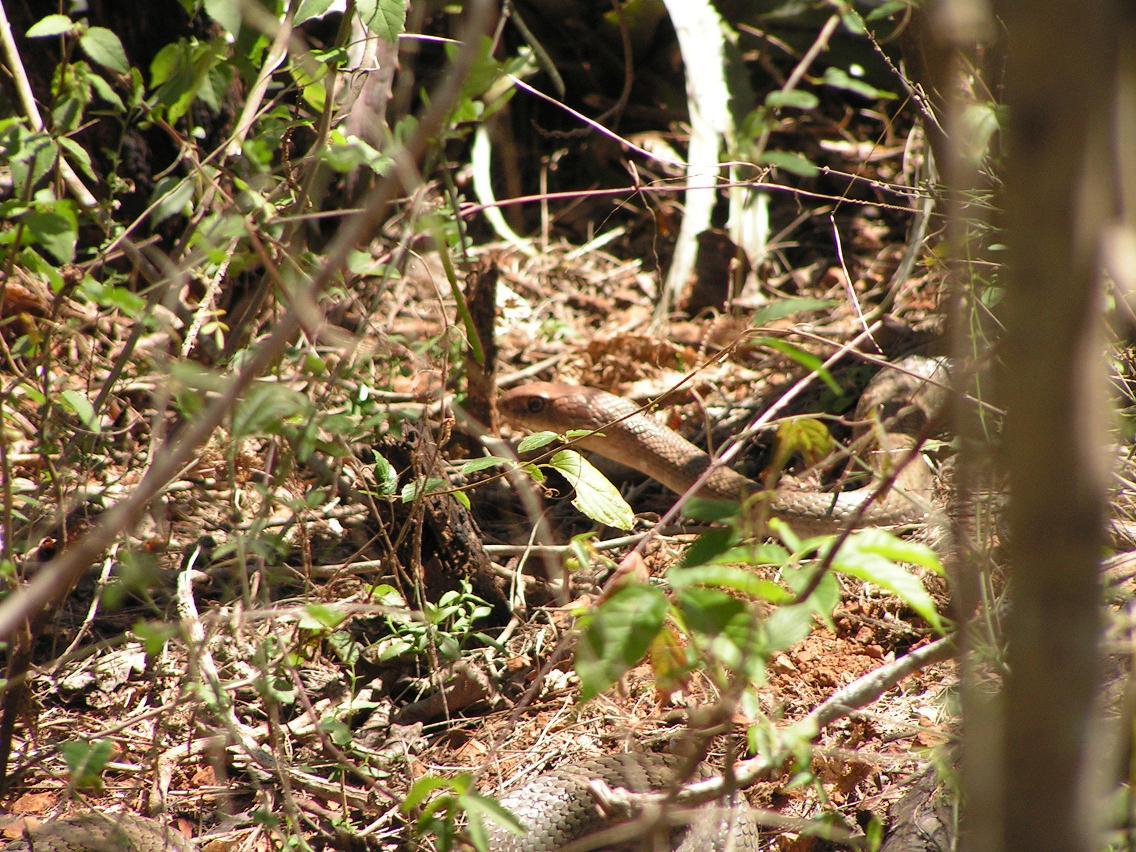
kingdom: Animalia
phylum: Chordata
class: Squamata
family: Colubridae
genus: Masticophis
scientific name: Masticophis mentovarius
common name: Neotropical whip snake
